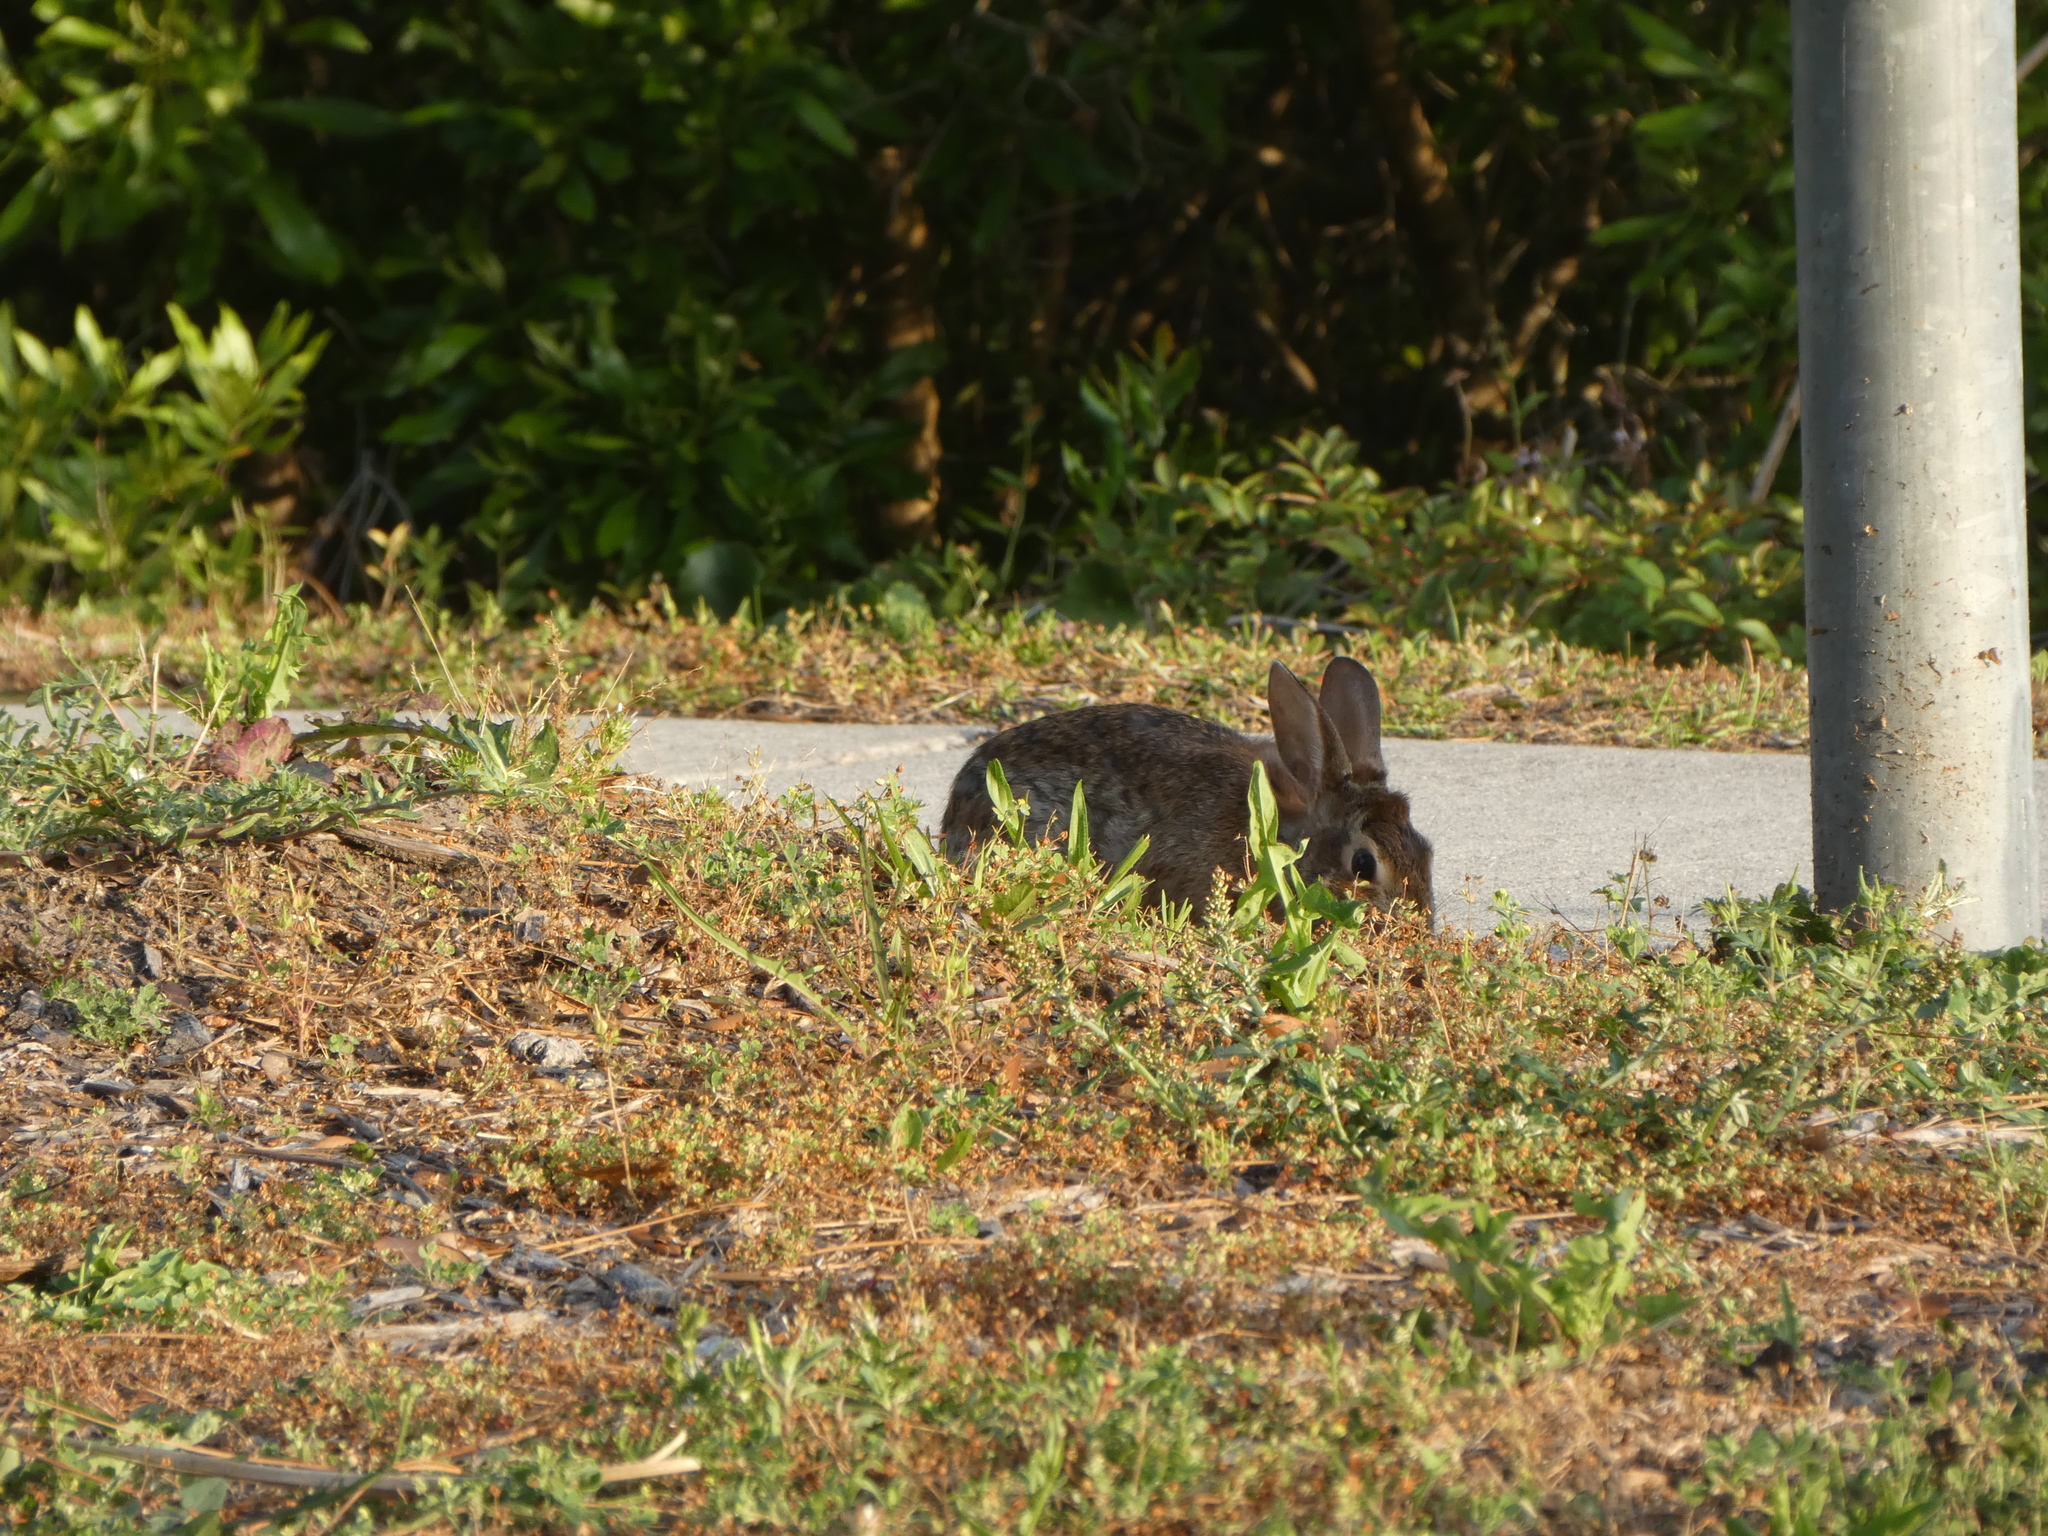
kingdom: Animalia
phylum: Chordata
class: Mammalia
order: Lagomorpha
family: Leporidae
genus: Sylvilagus
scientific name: Sylvilagus floridanus
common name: Eastern cottontail
